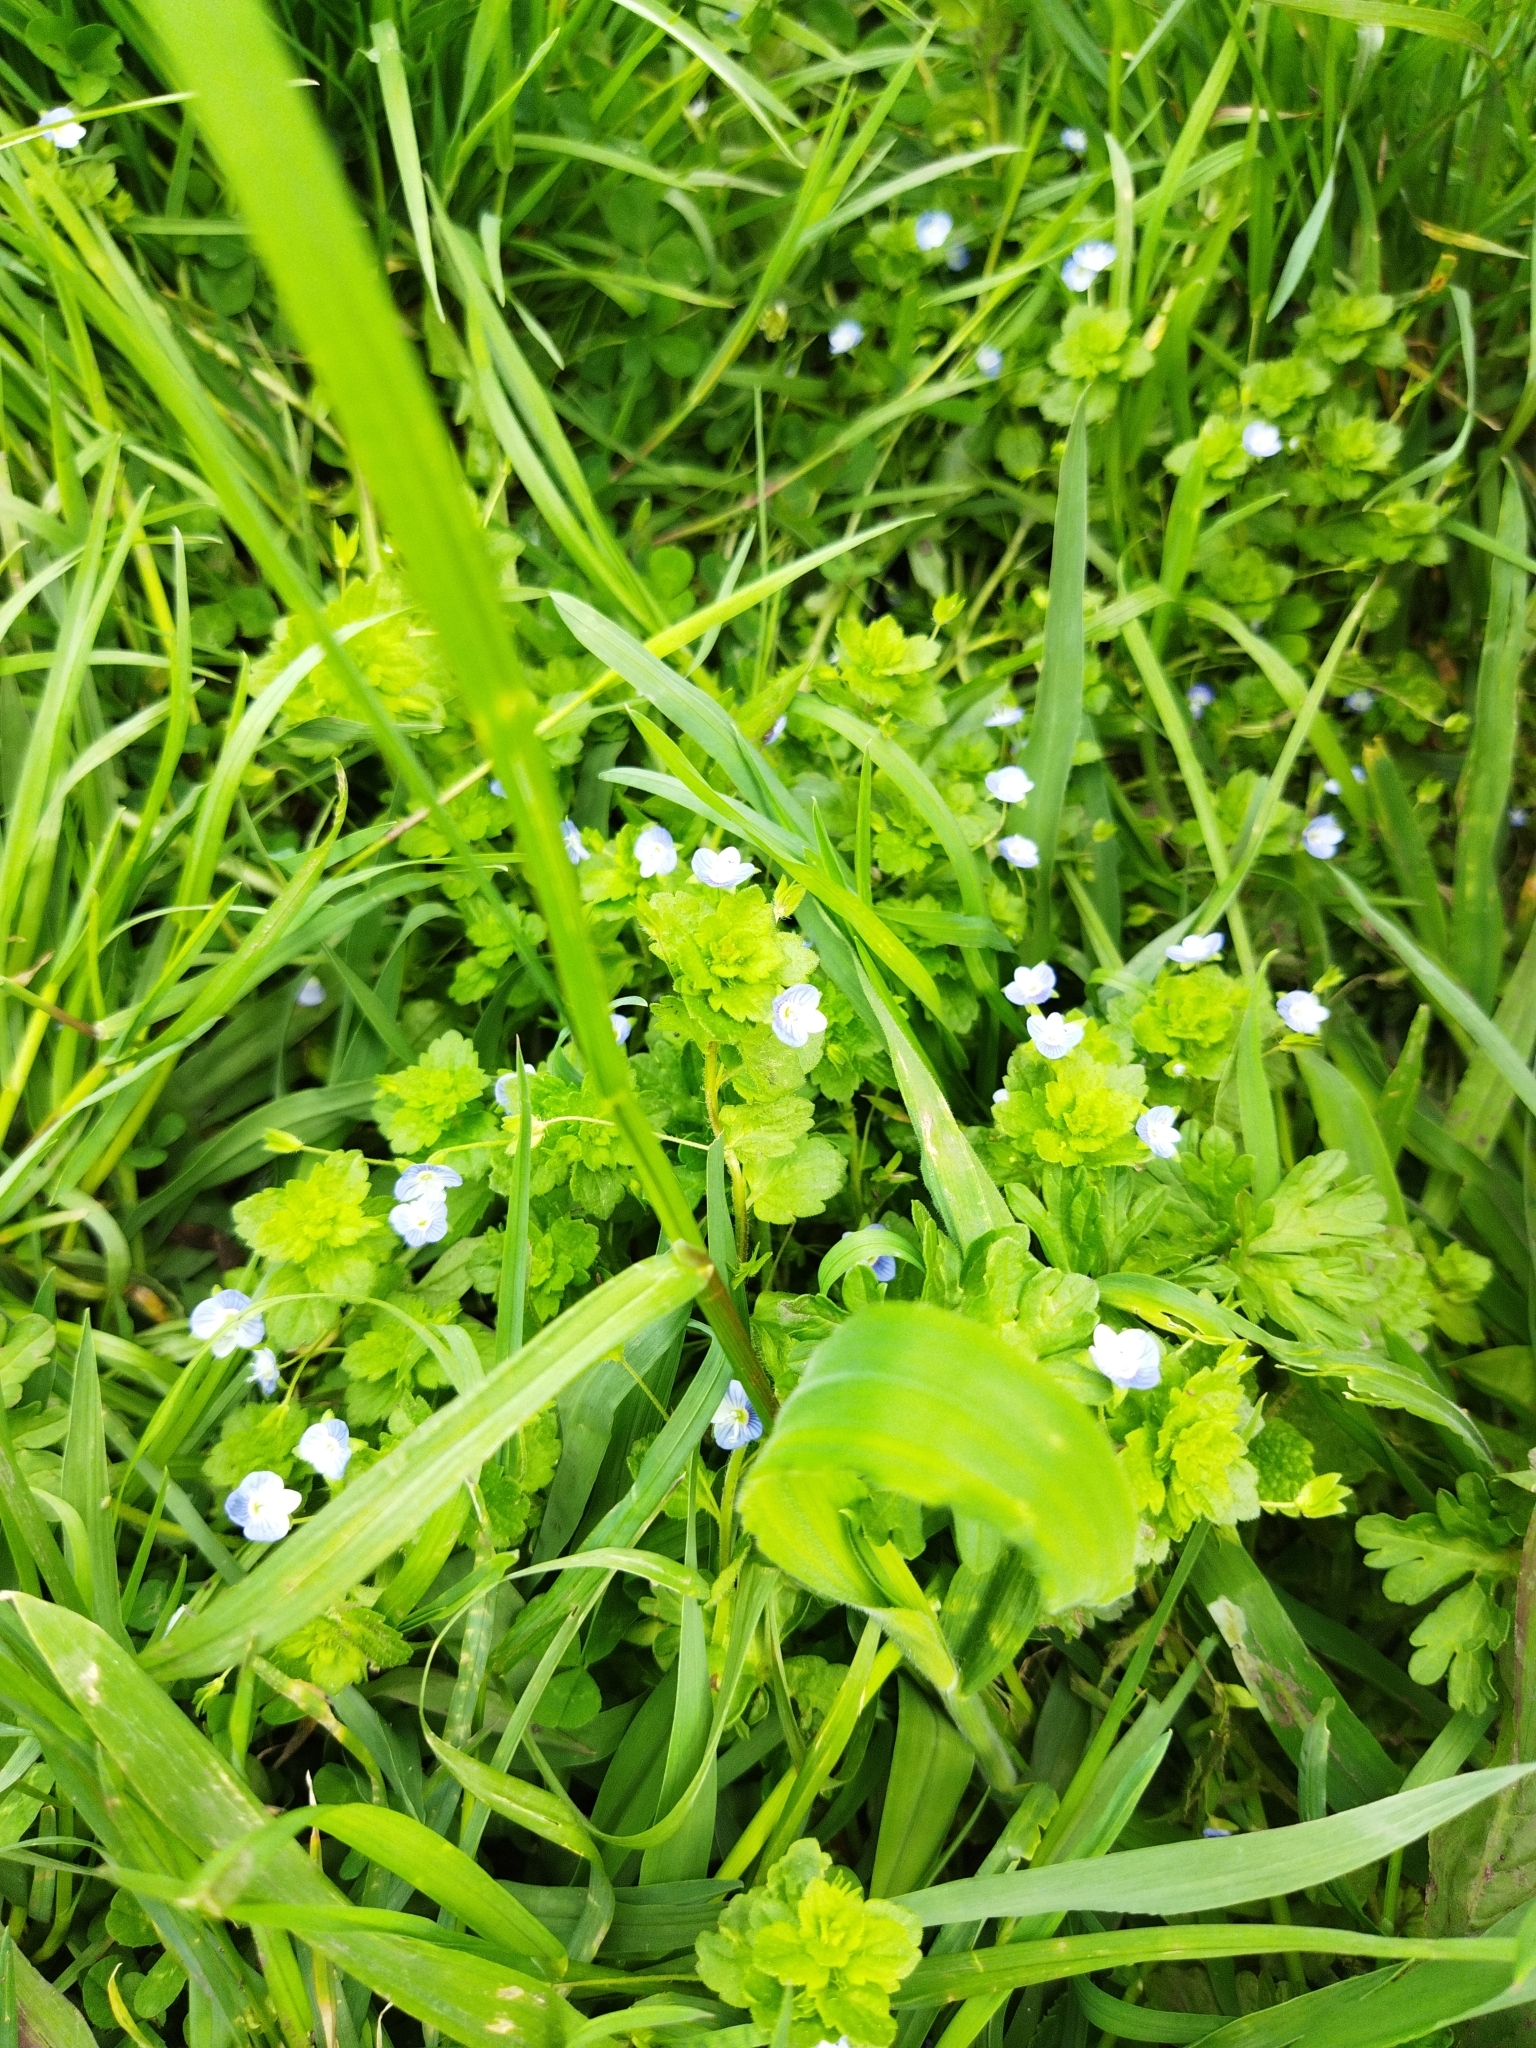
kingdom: Plantae
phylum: Tracheophyta
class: Magnoliopsida
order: Lamiales
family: Plantaginaceae
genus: Veronica
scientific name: Veronica persica
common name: Common field-speedwell
